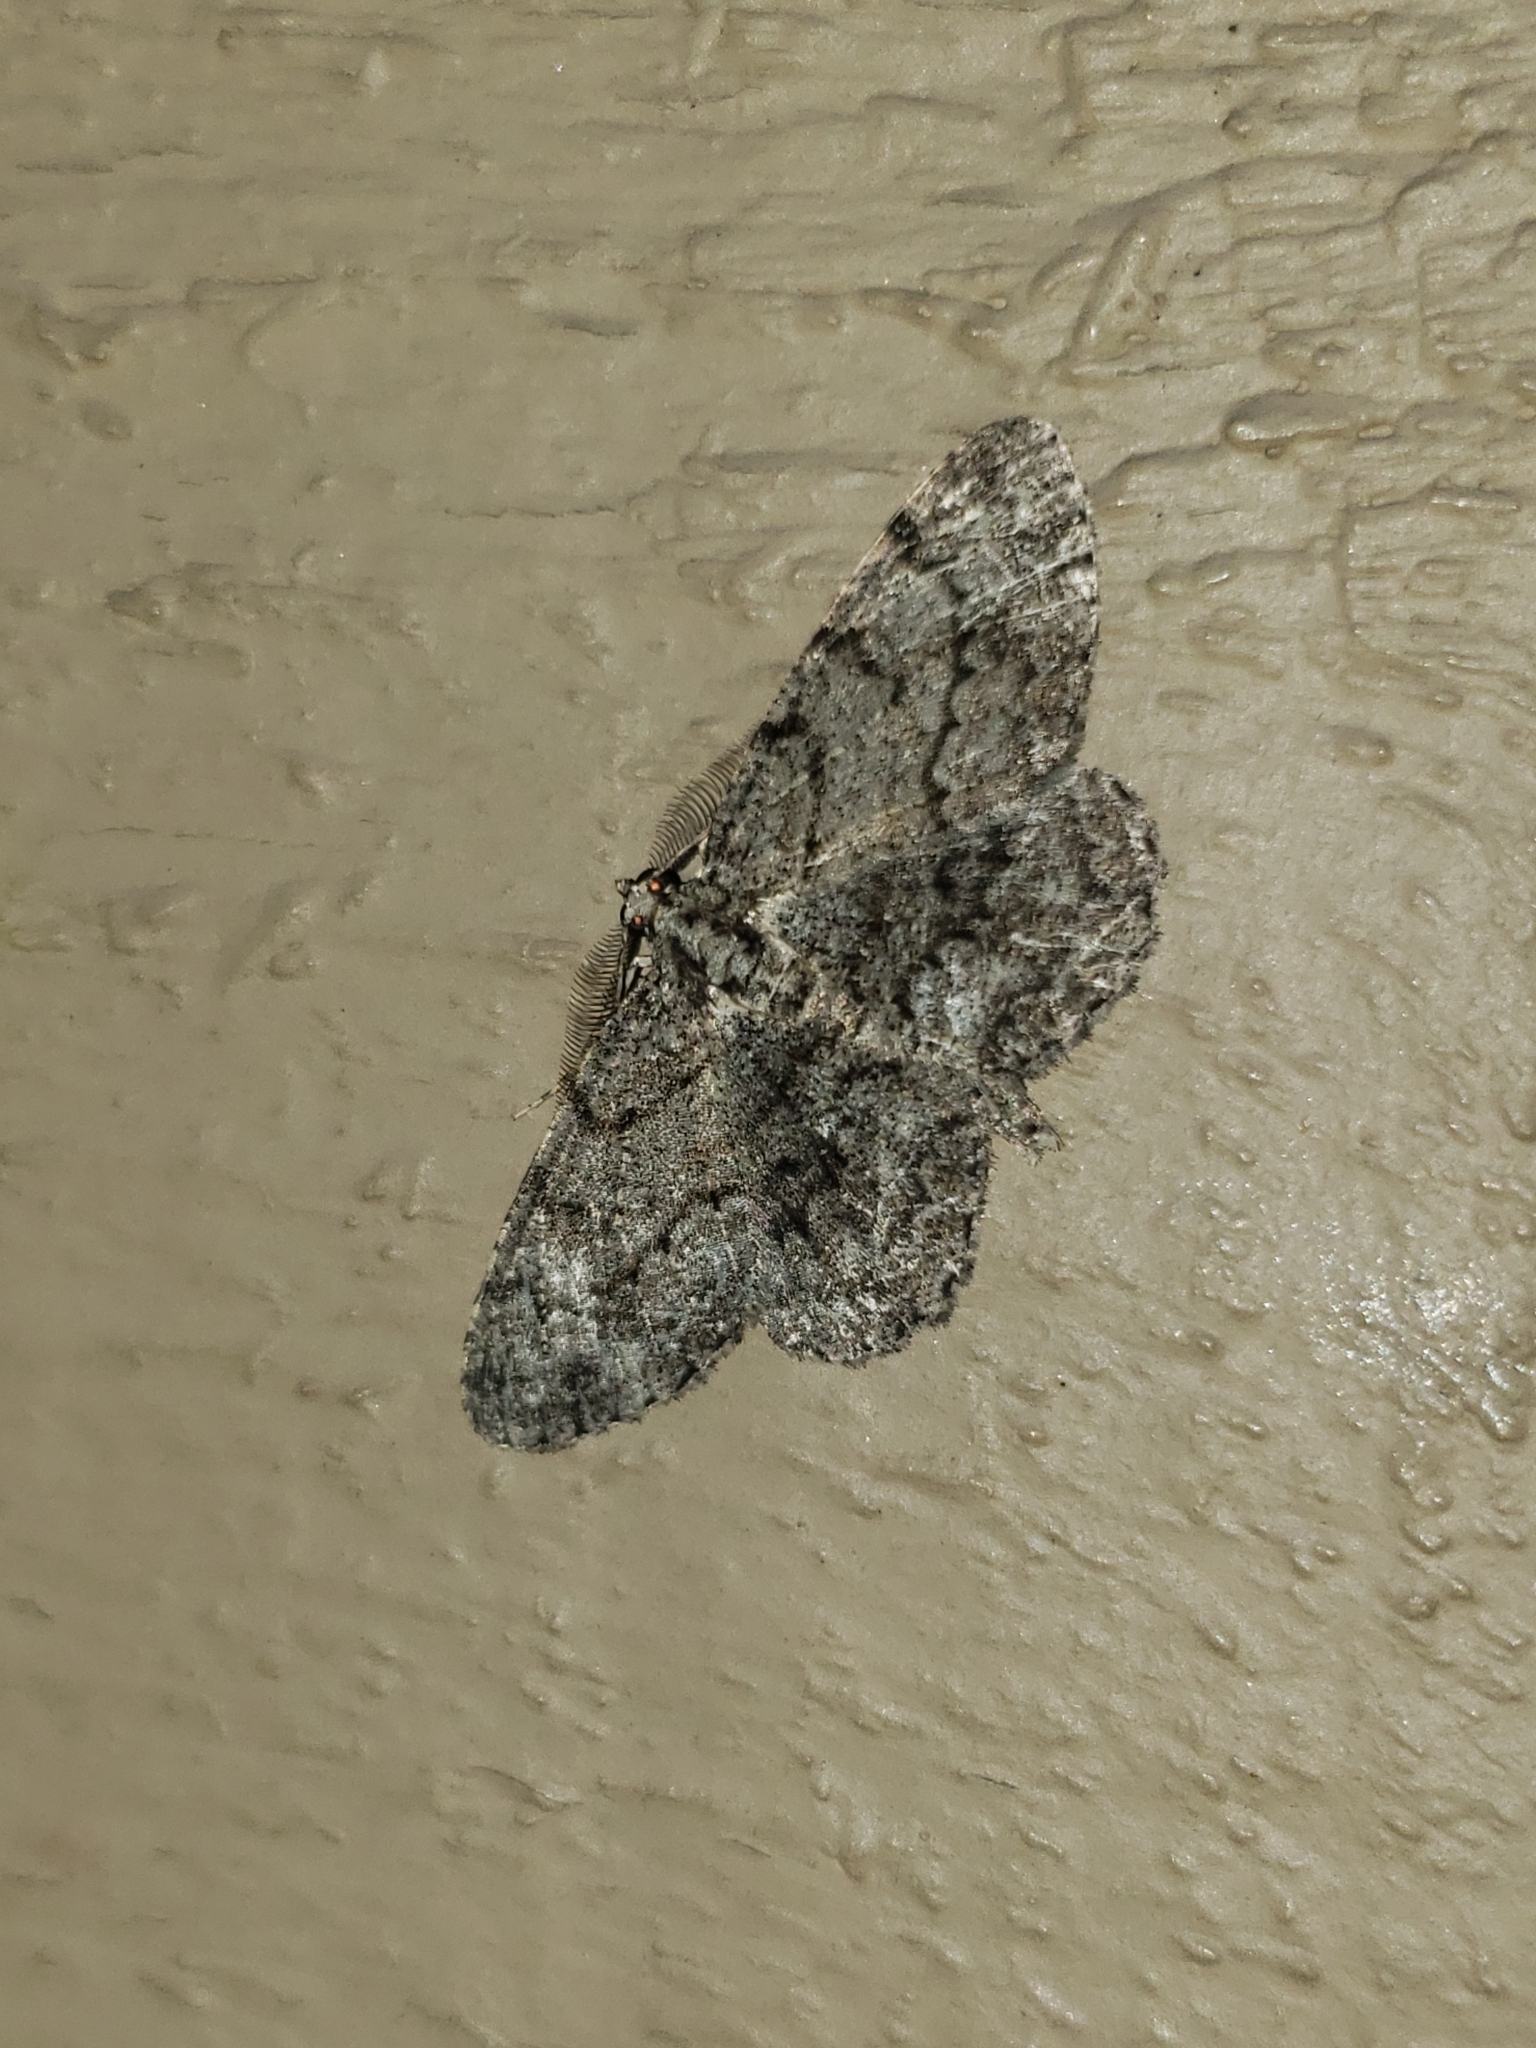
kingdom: Animalia
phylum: Arthropoda
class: Insecta
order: Lepidoptera
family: Geometridae
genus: Protoboarmia
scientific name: Protoboarmia porcelaria
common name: Porcelain gray
